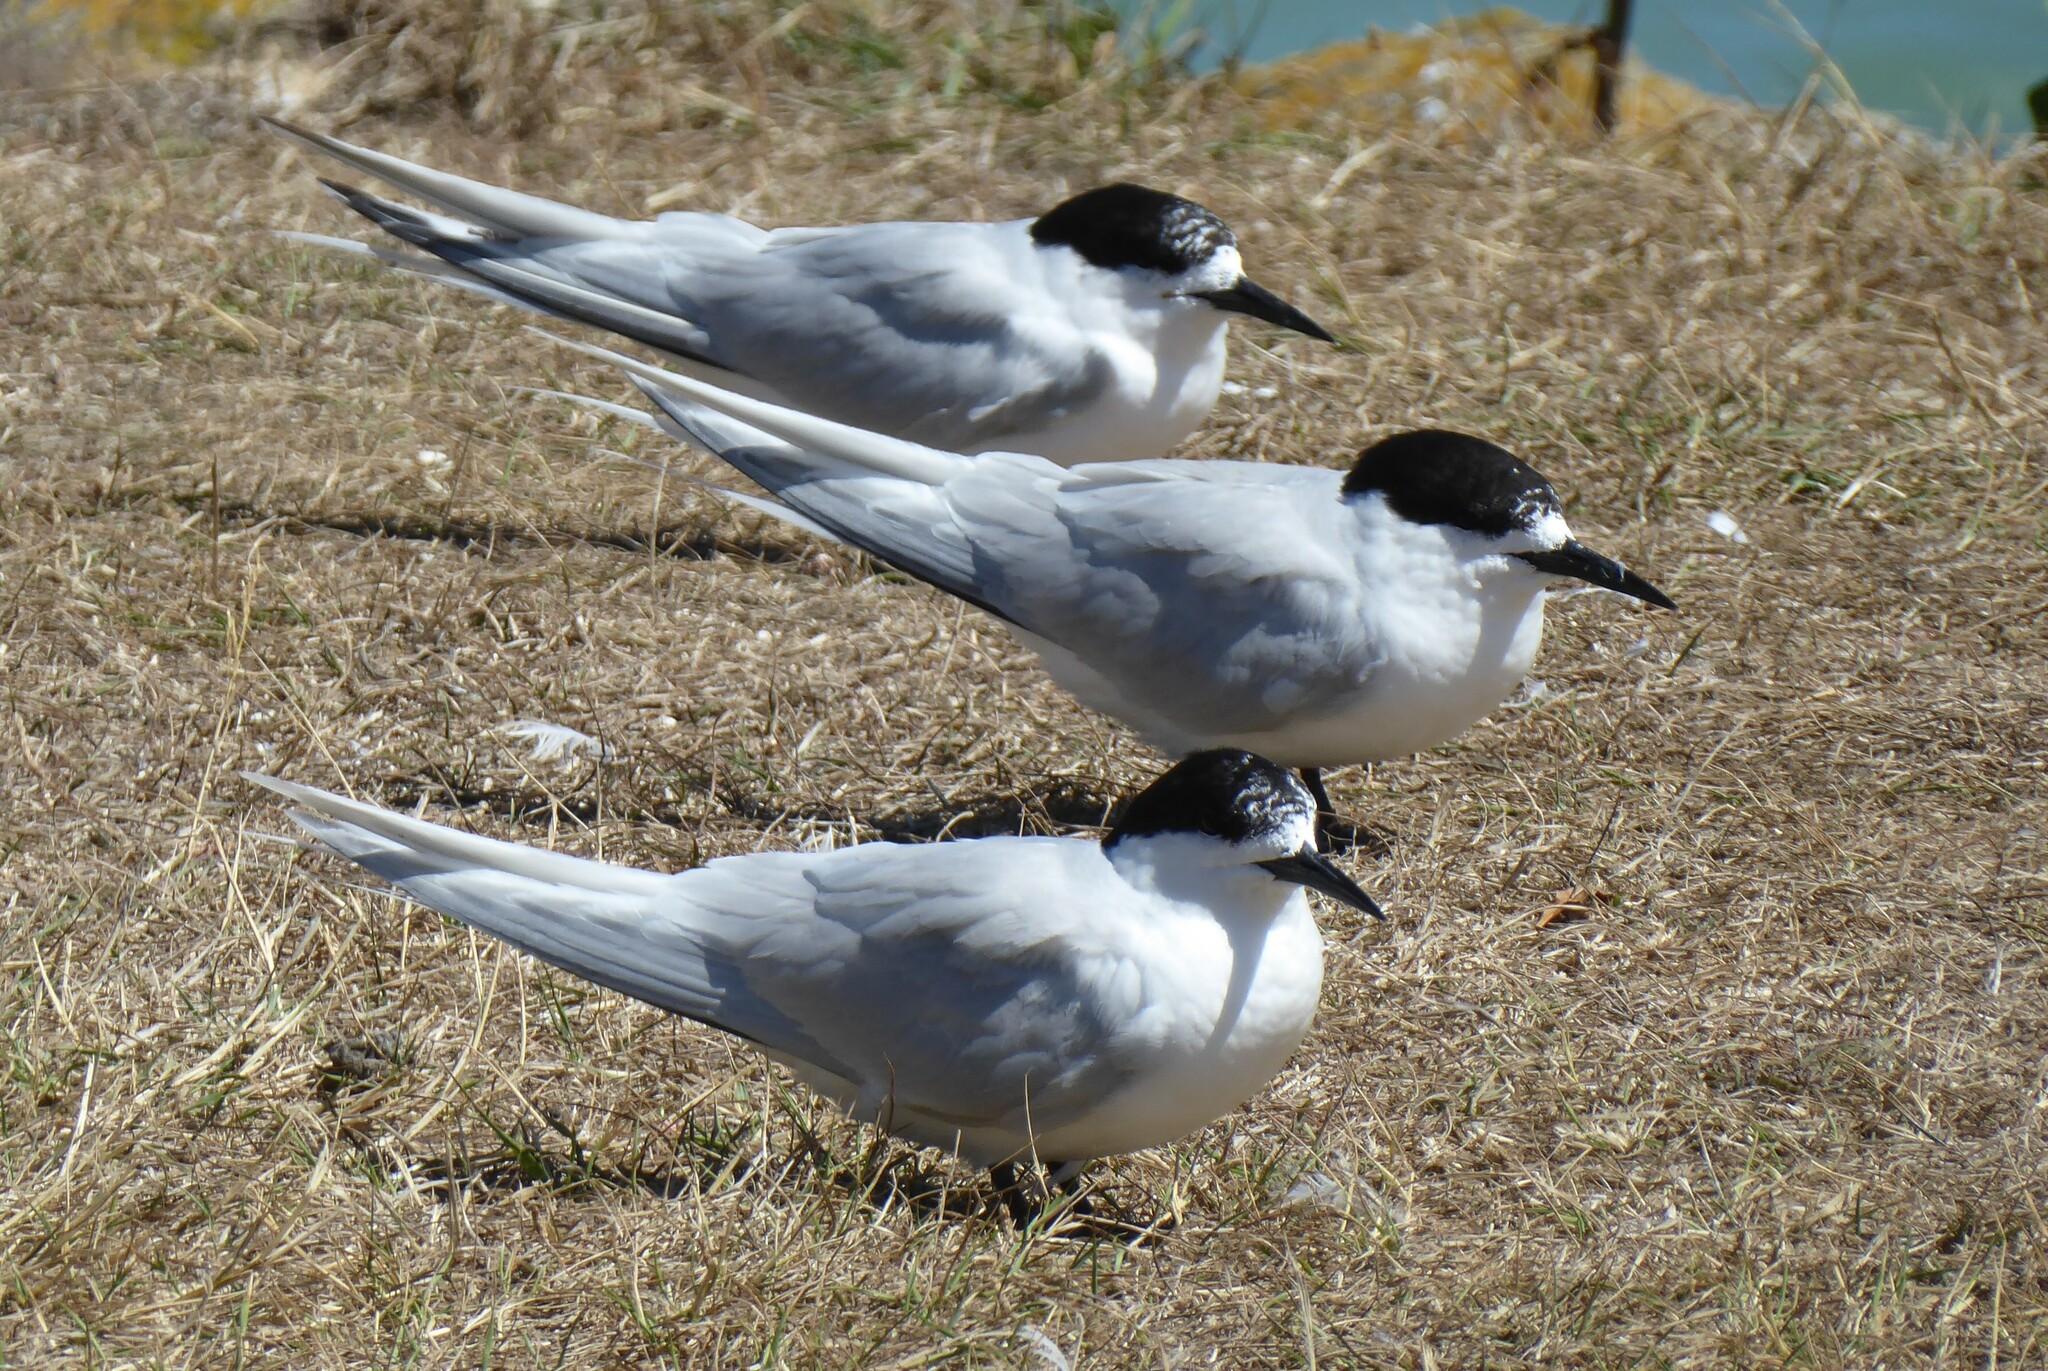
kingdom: Animalia
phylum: Chordata
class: Aves
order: Charadriiformes
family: Laridae
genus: Sterna
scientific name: Sterna striata
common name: White-fronted tern
